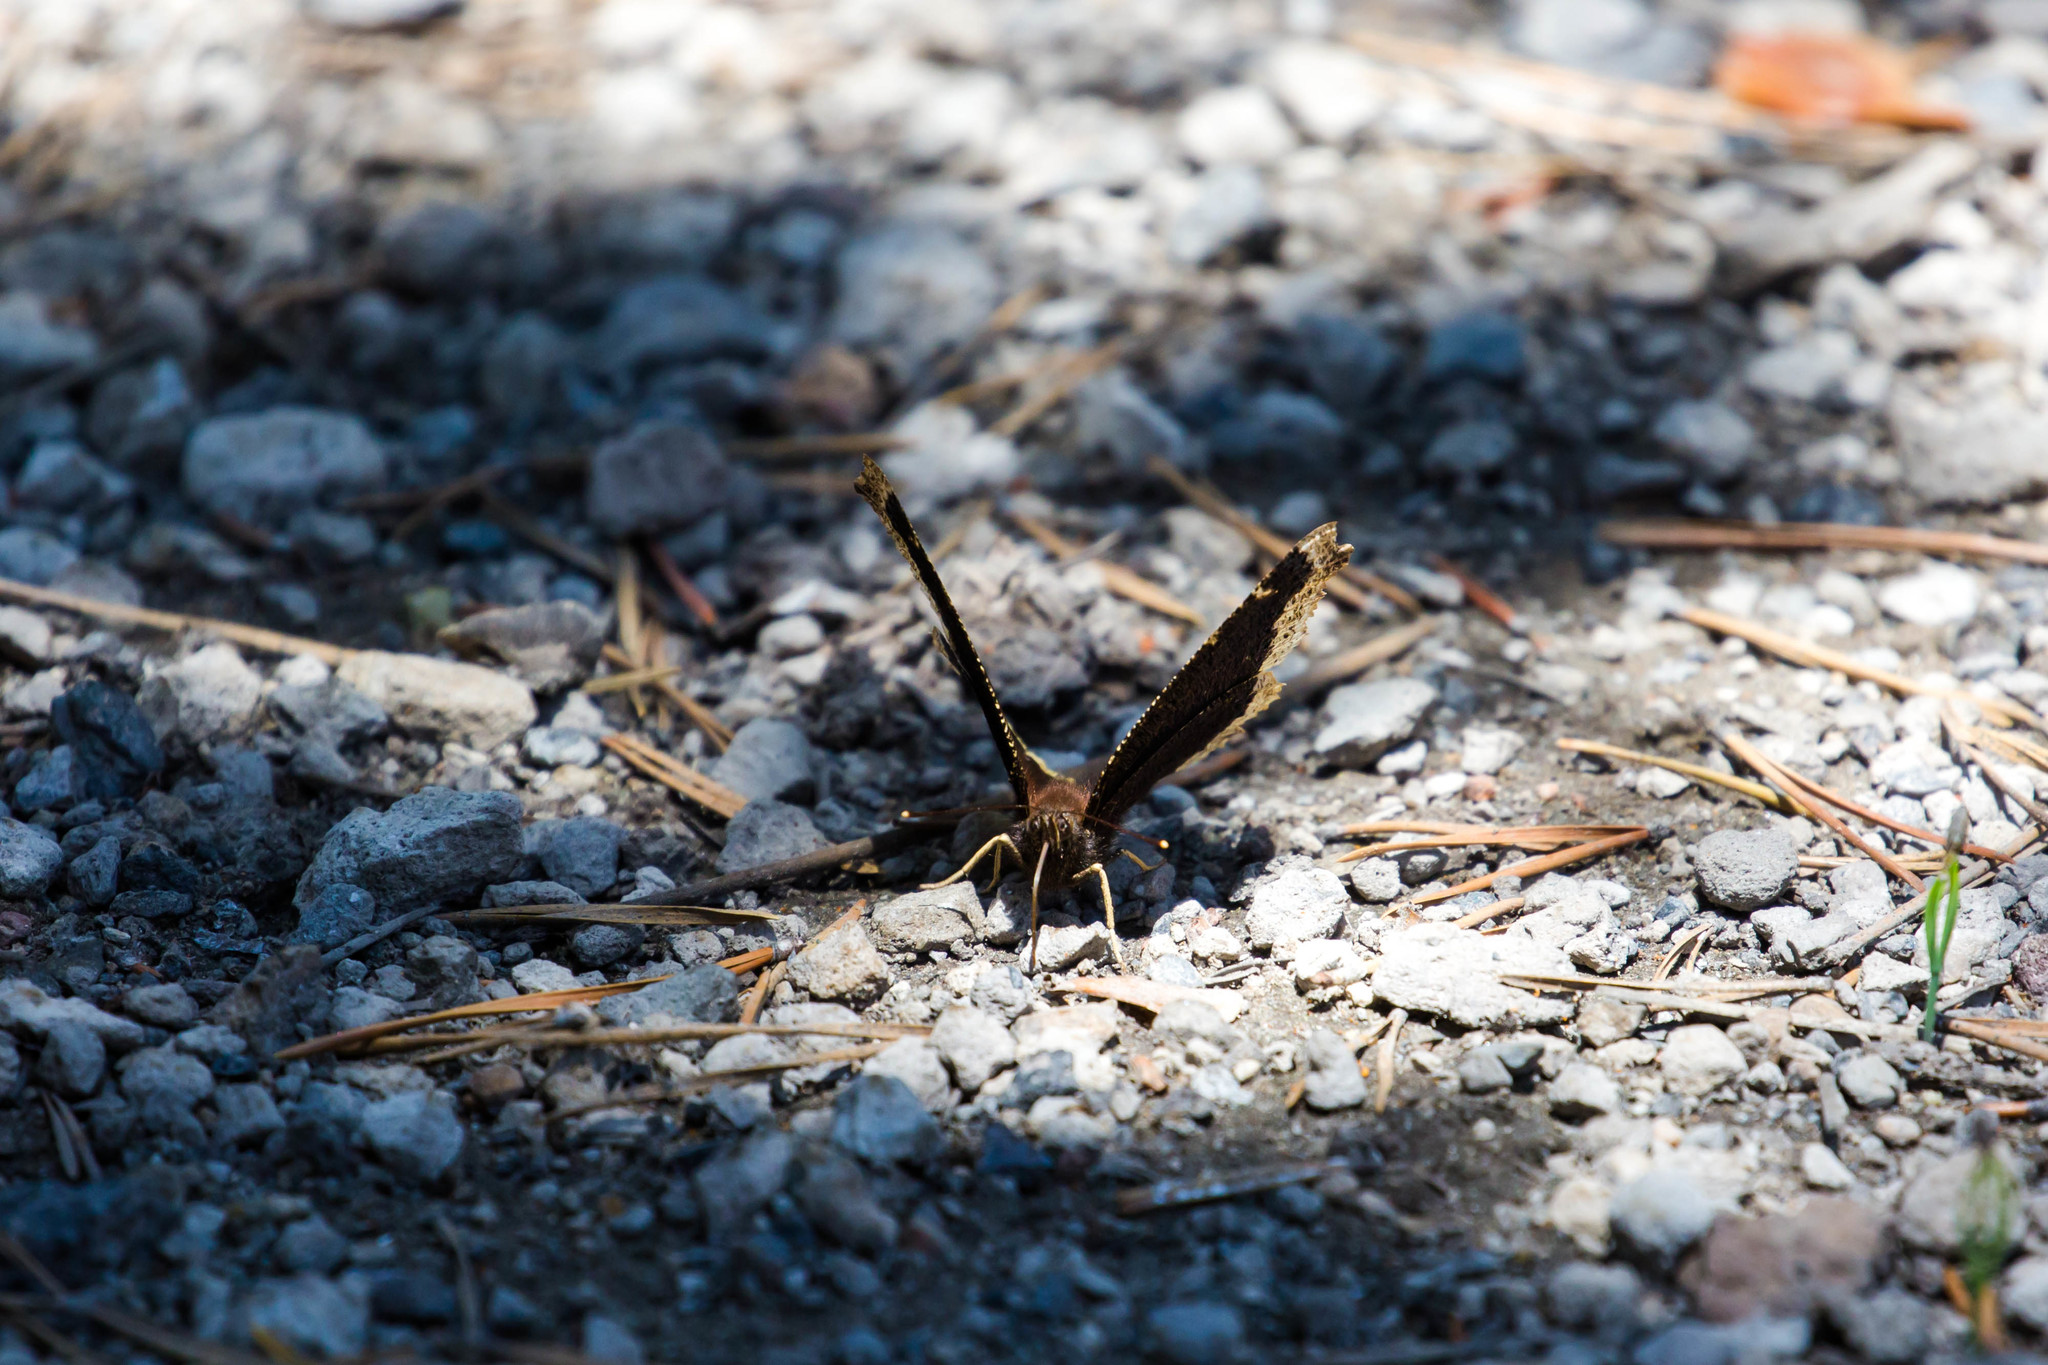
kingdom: Animalia
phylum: Arthropoda
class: Insecta
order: Lepidoptera
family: Nymphalidae
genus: Nymphalis
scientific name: Nymphalis antiopa
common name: Camberwell beauty
